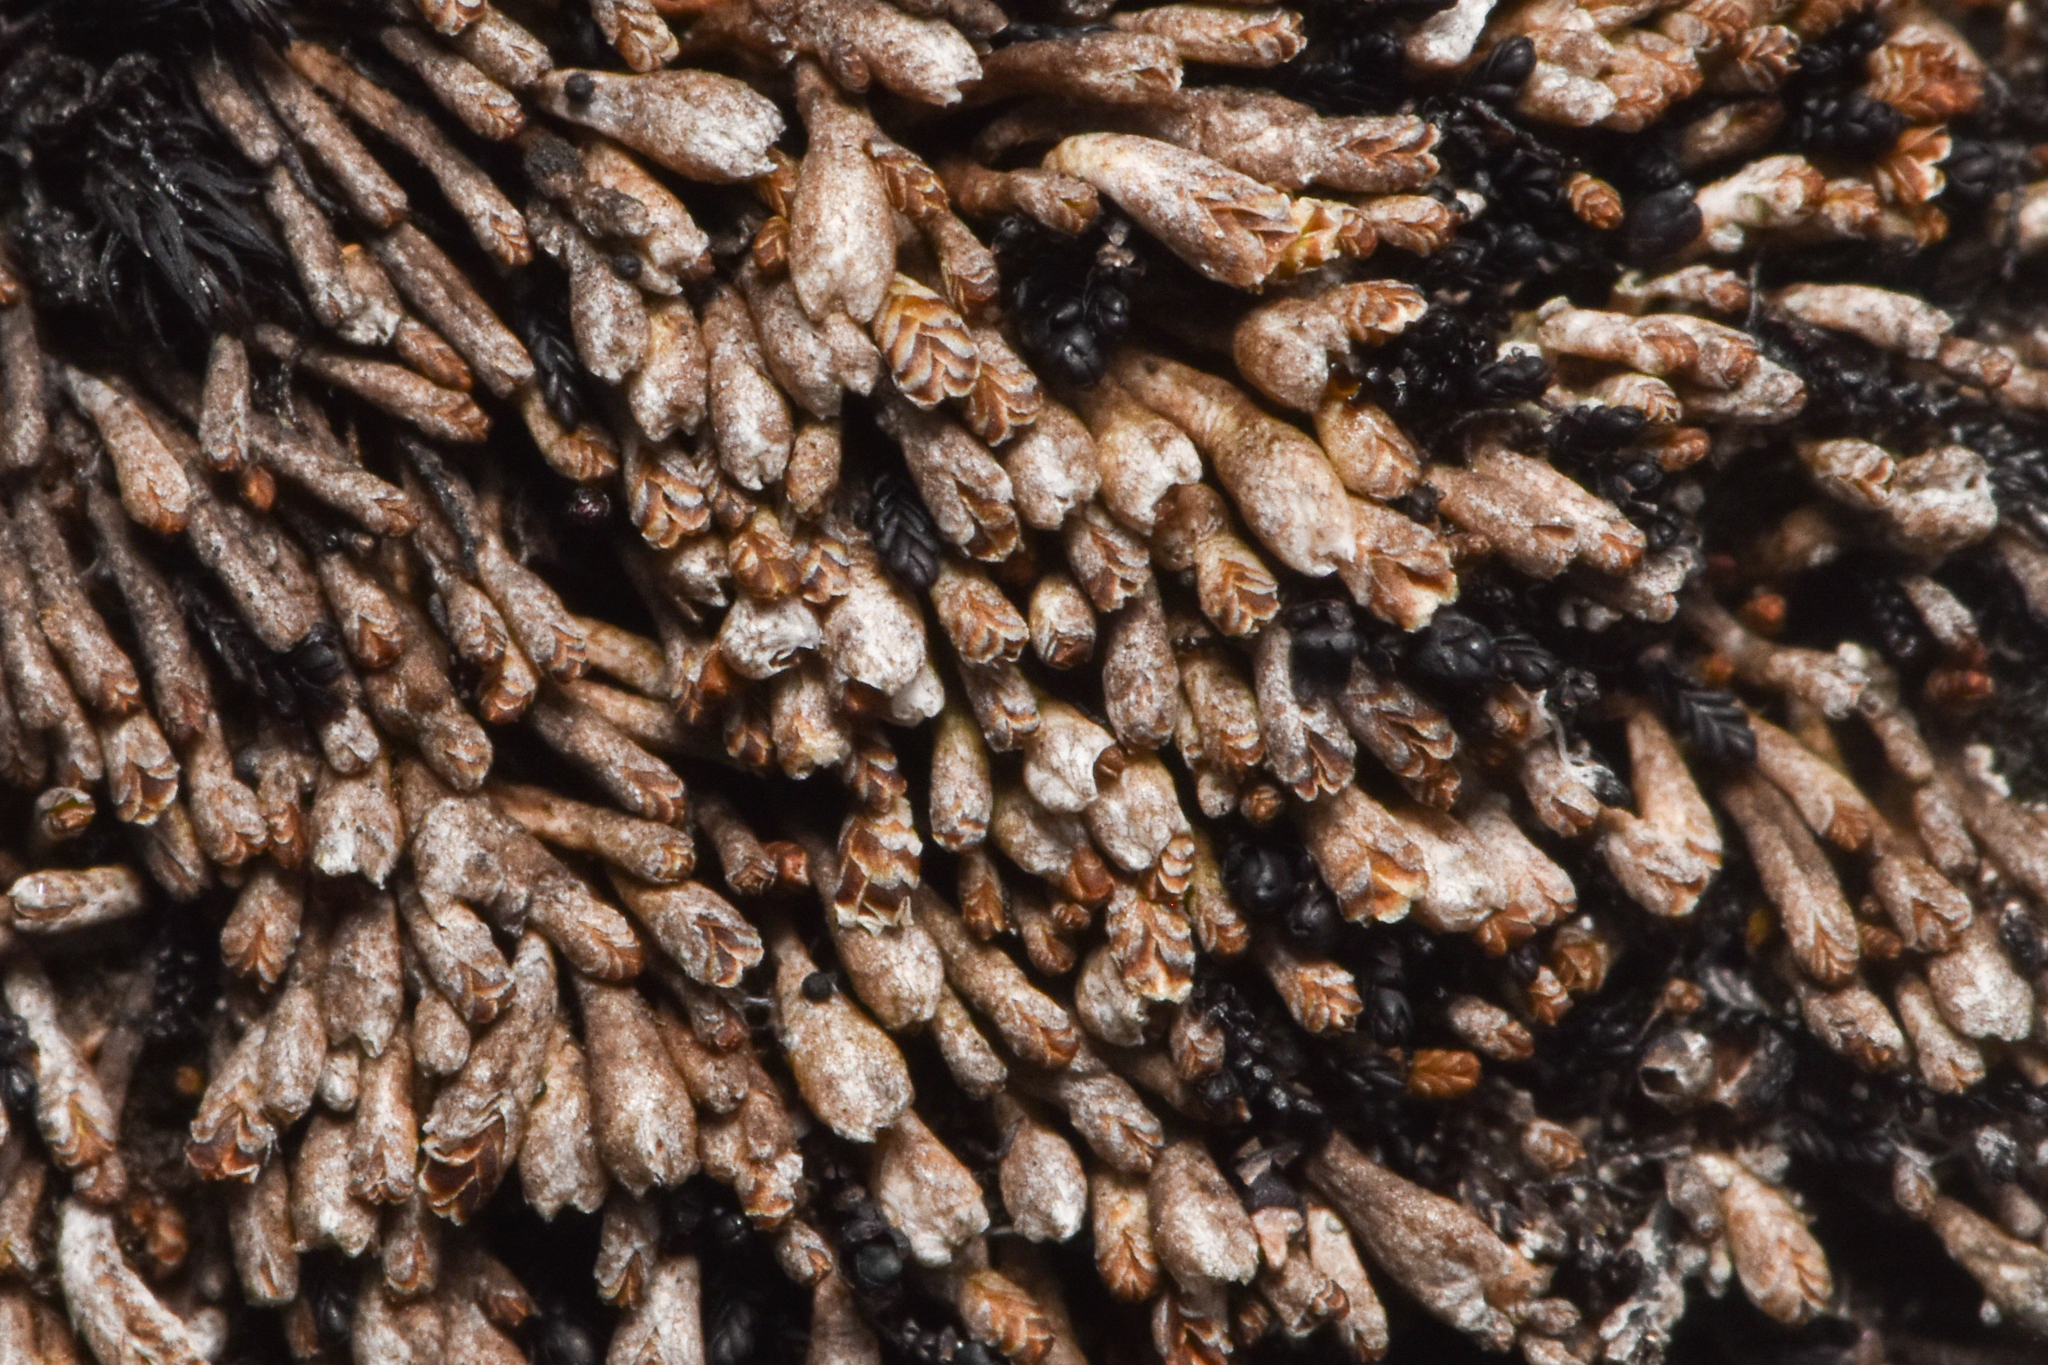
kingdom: Plantae
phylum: Marchantiophyta
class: Jungermanniopsida
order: Jungermanniales
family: Gymnomitriaceae
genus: Gymnomitrion
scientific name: Gymnomitrion obtusum
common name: White frostwort
